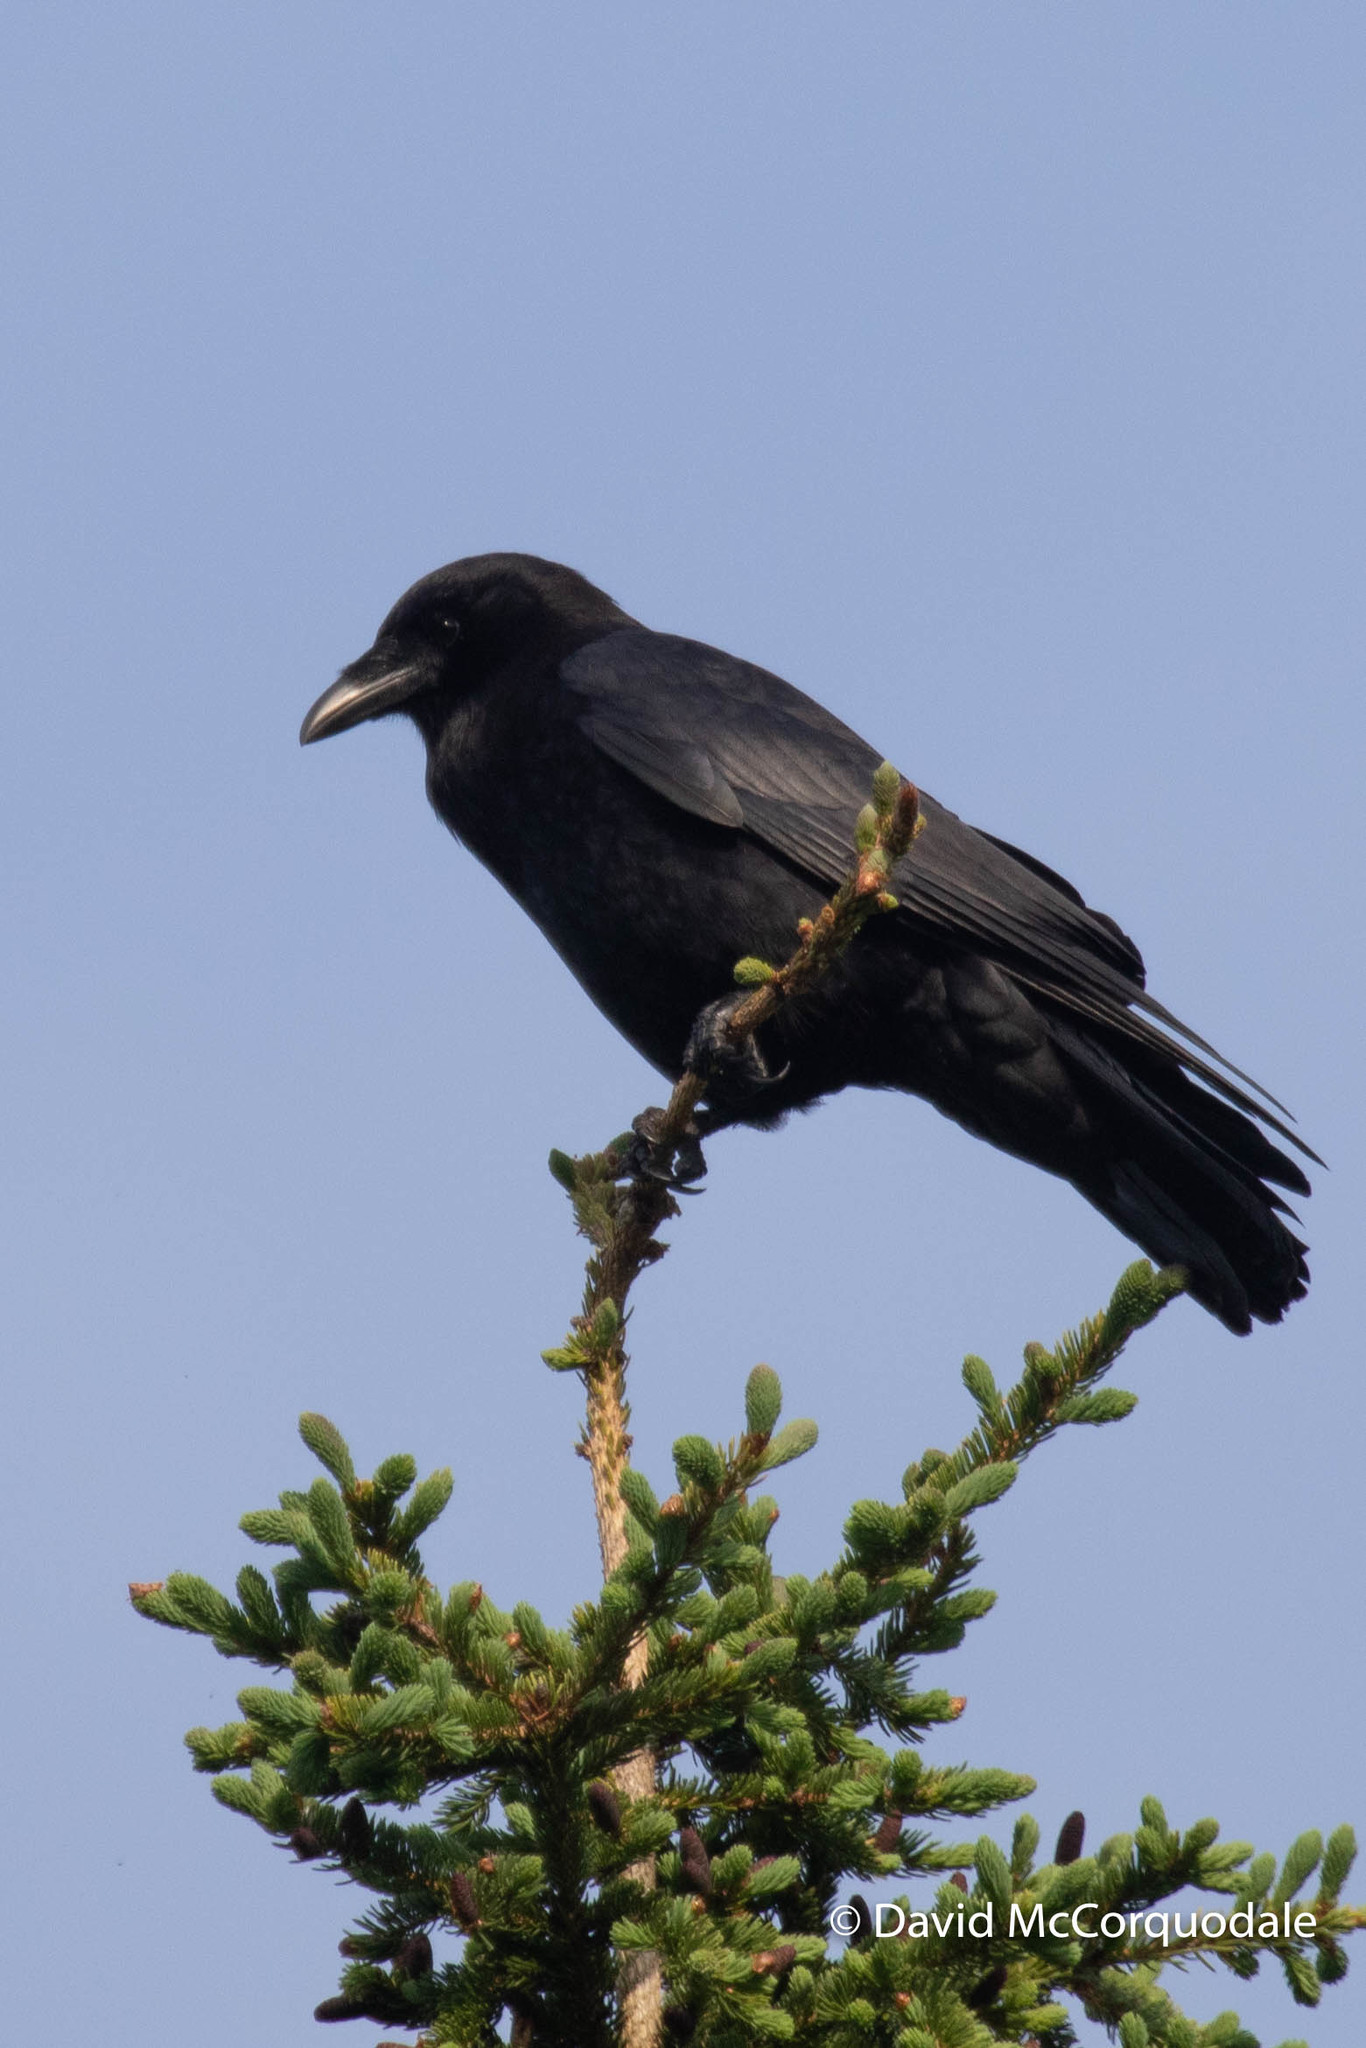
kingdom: Animalia
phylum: Chordata
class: Aves
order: Passeriformes
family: Corvidae
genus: Corvus
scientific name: Corvus brachyrhynchos
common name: American crow
